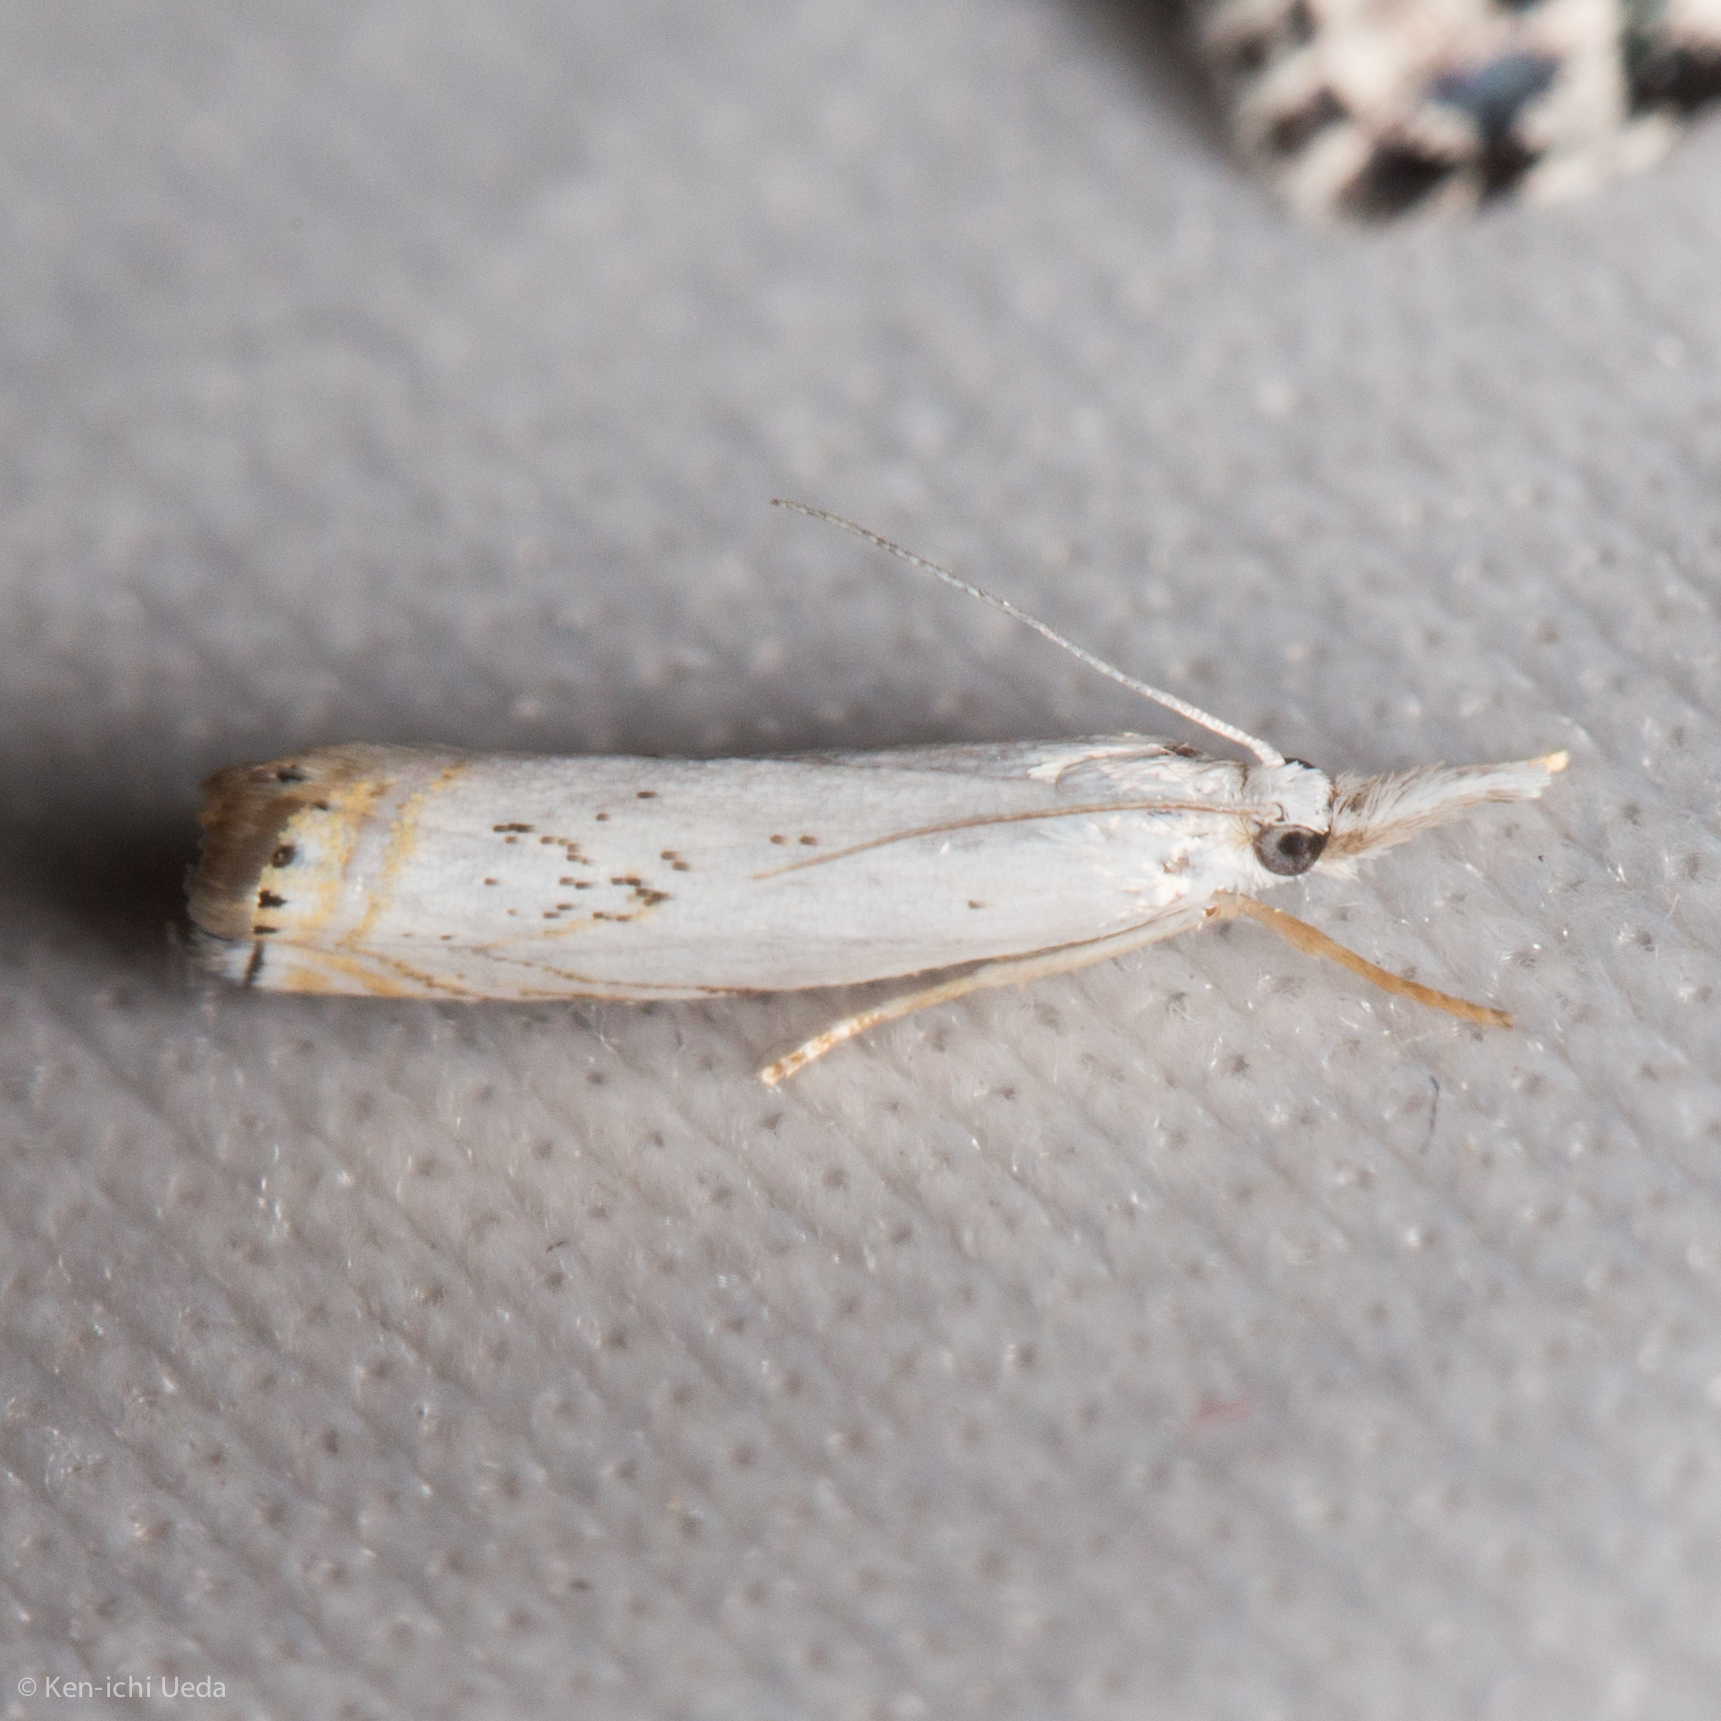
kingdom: Animalia
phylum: Arthropoda
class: Insecta
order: Lepidoptera
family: Crambidae
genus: Crambus
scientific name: Crambus albellus
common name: Small white grass-veneer
